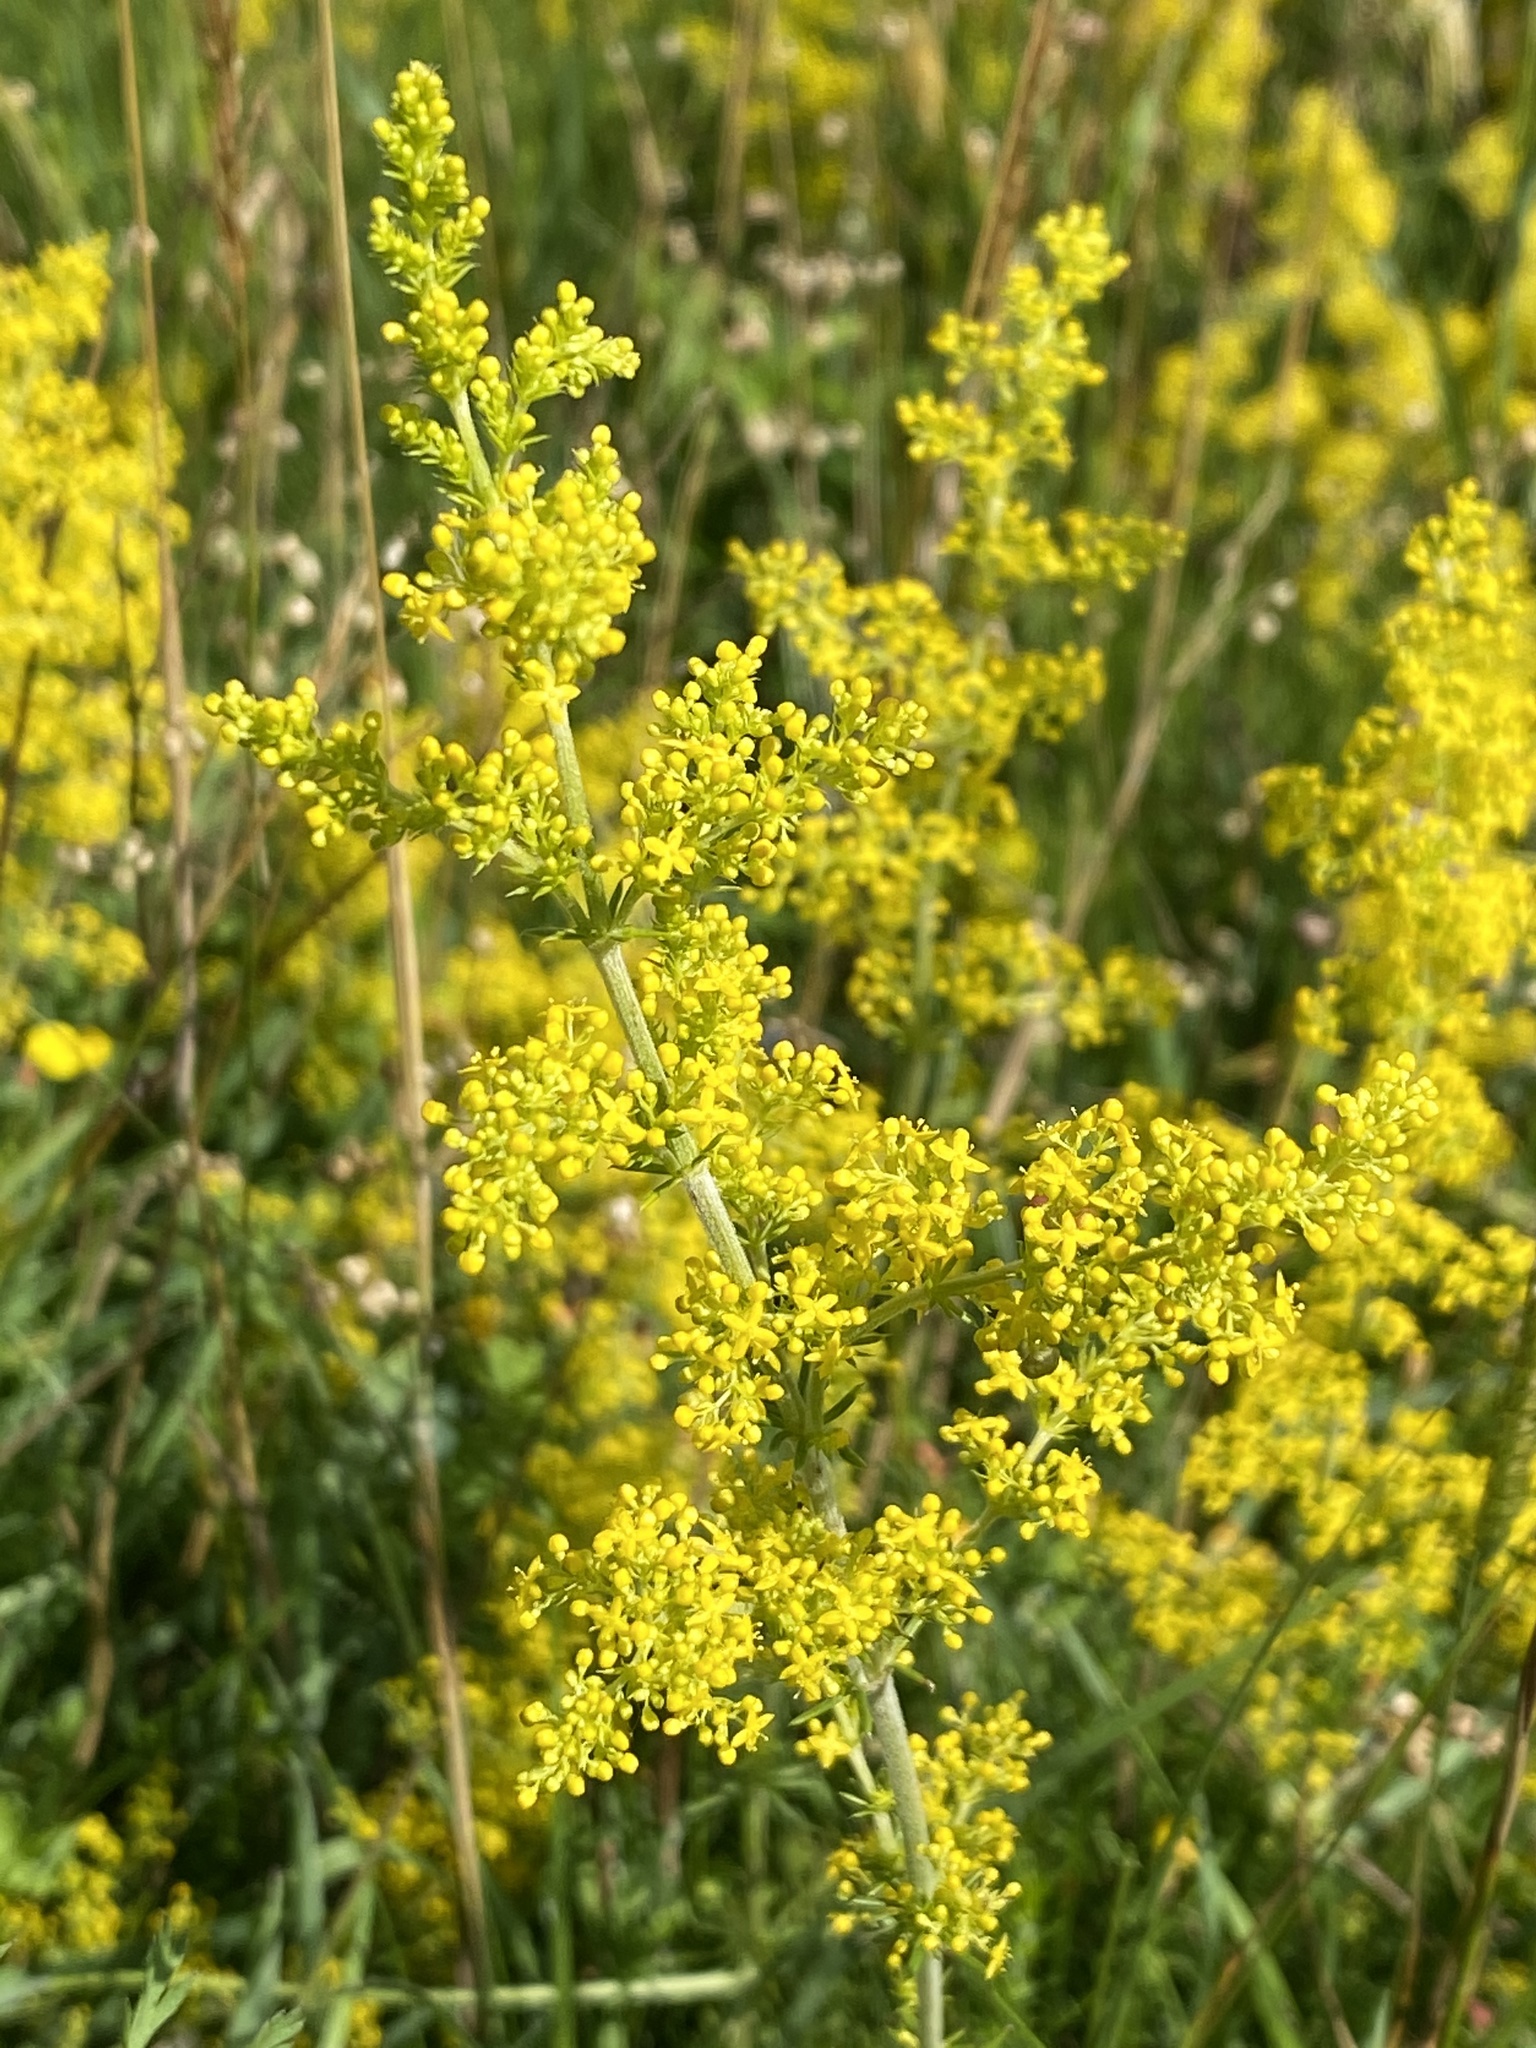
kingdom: Plantae
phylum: Tracheophyta
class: Magnoliopsida
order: Gentianales
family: Rubiaceae
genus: Galium
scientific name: Galium verum
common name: Lady's bedstraw
